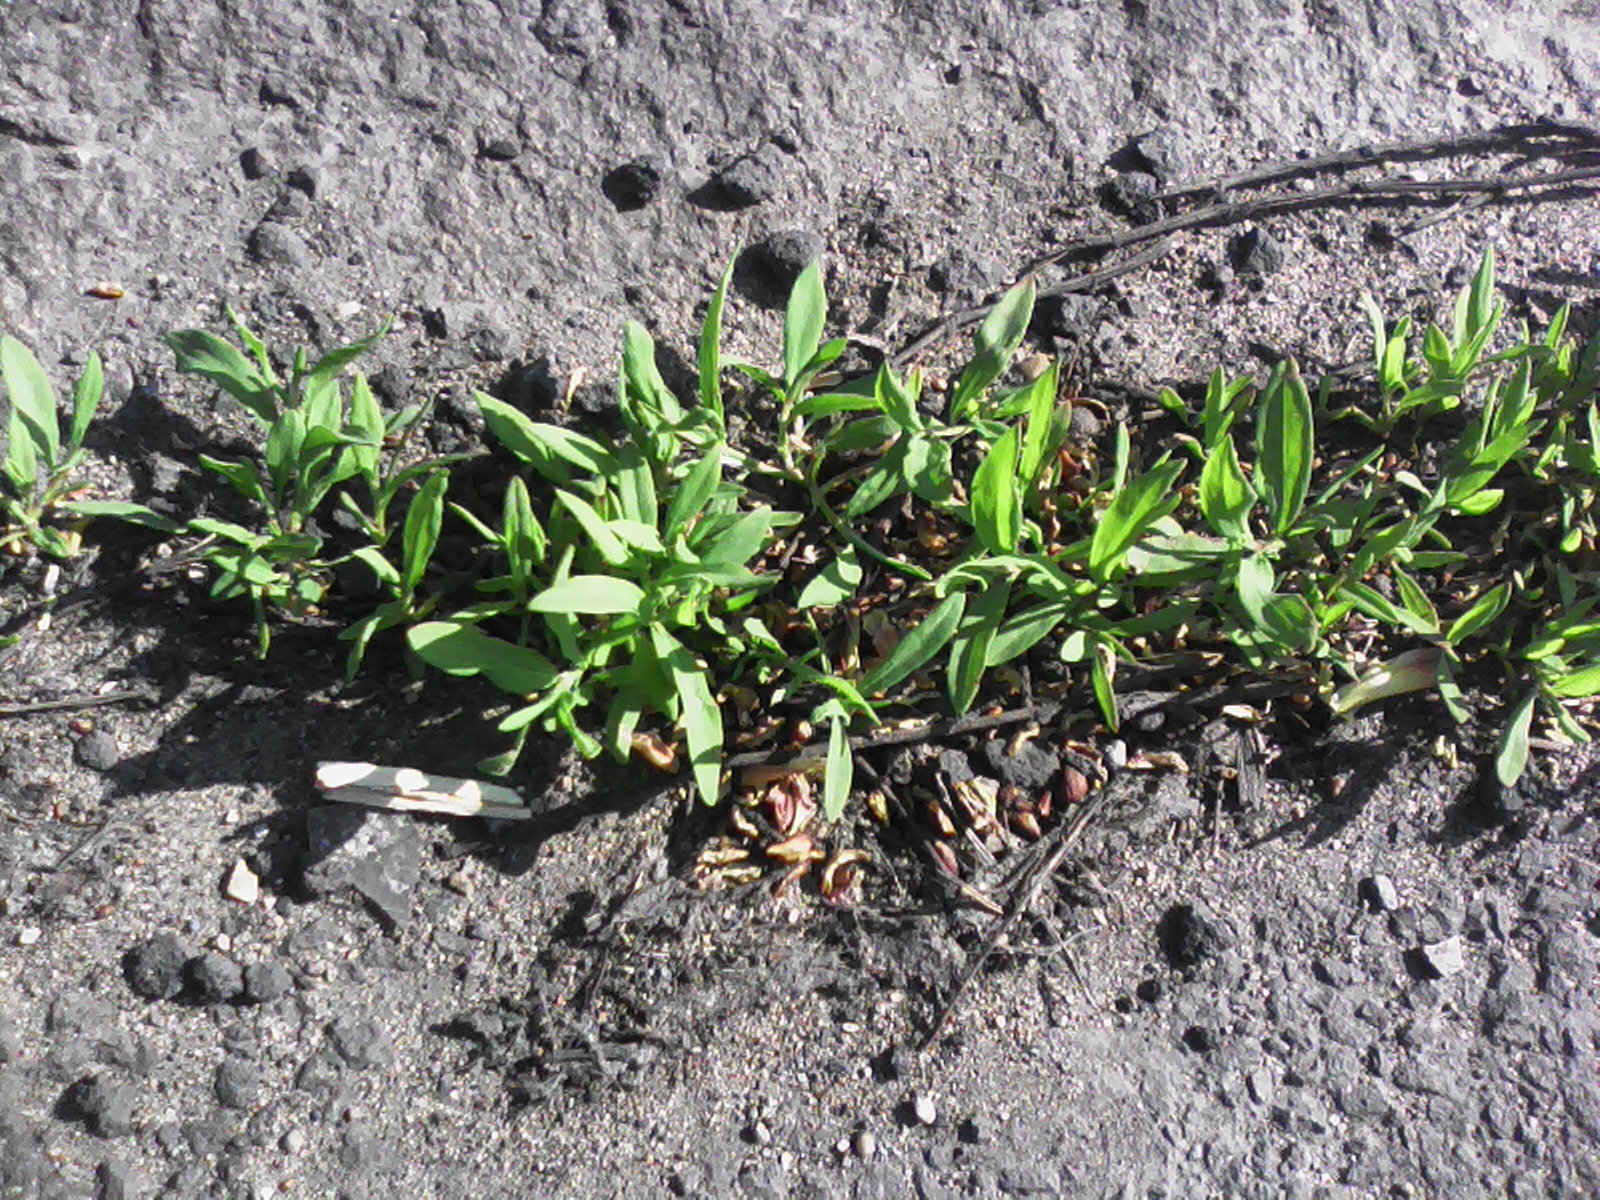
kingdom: Plantae
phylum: Tracheophyta
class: Magnoliopsida
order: Caryophyllales
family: Polygonaceae
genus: Polygonum
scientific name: Polygonum aviculare
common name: Prostrate knotweed
